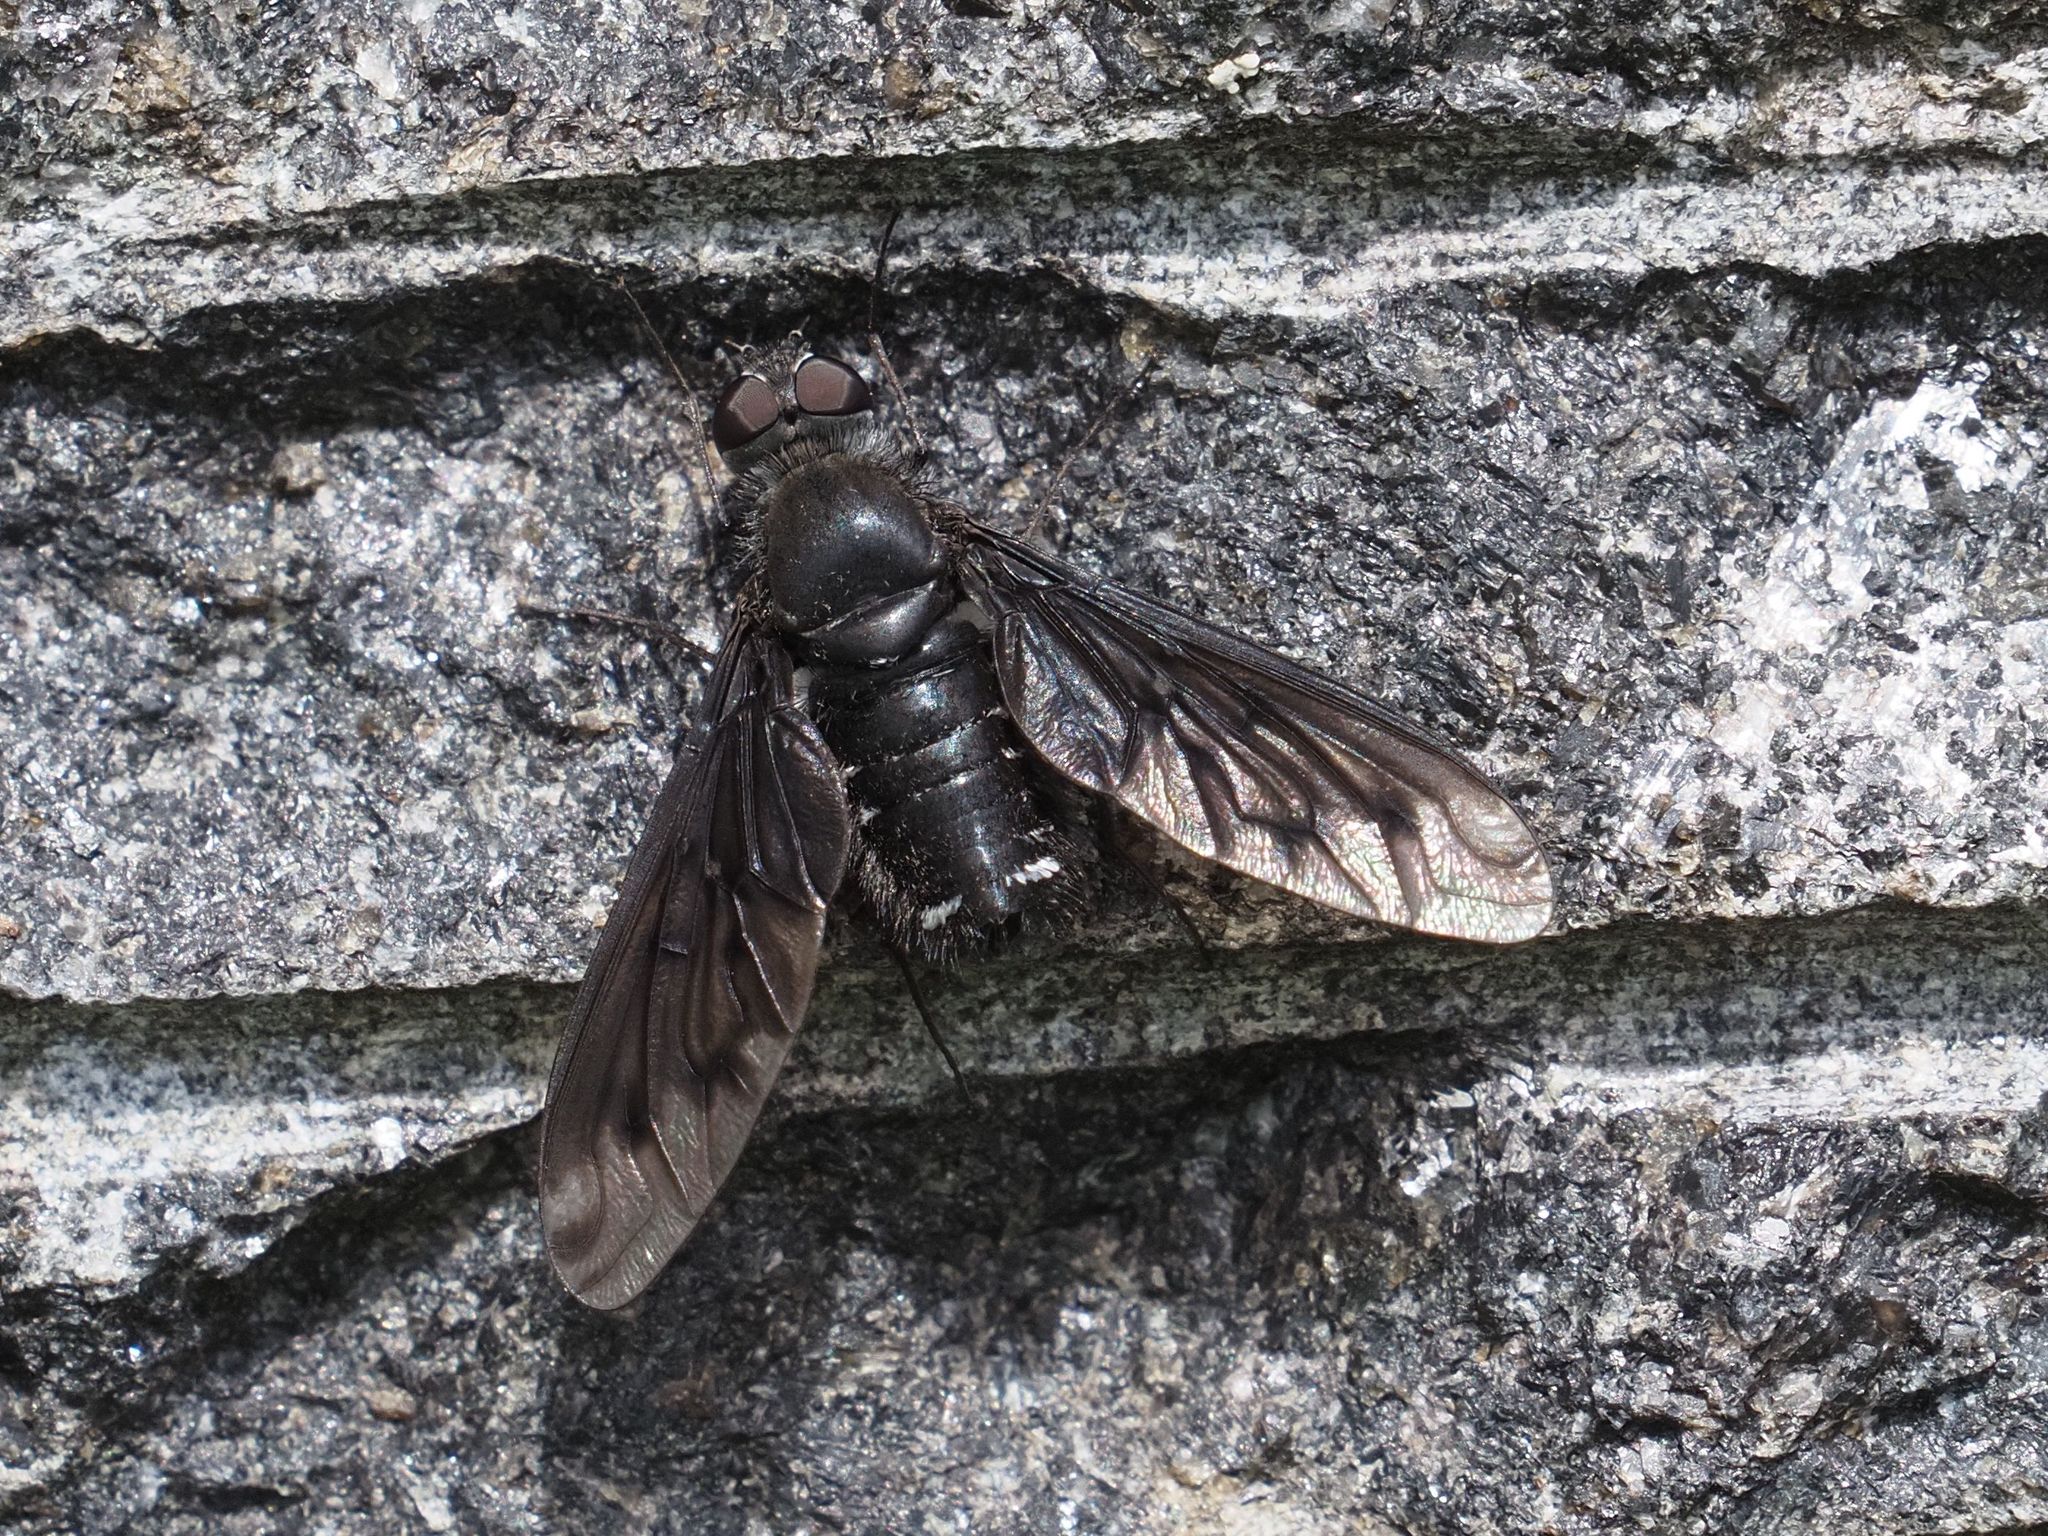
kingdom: Animalia
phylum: Arthropoda
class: Insecta
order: Diptera
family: Bombyliidae
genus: Anthrax
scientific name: Anthrax anthrax
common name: Anthracite bee-fly
